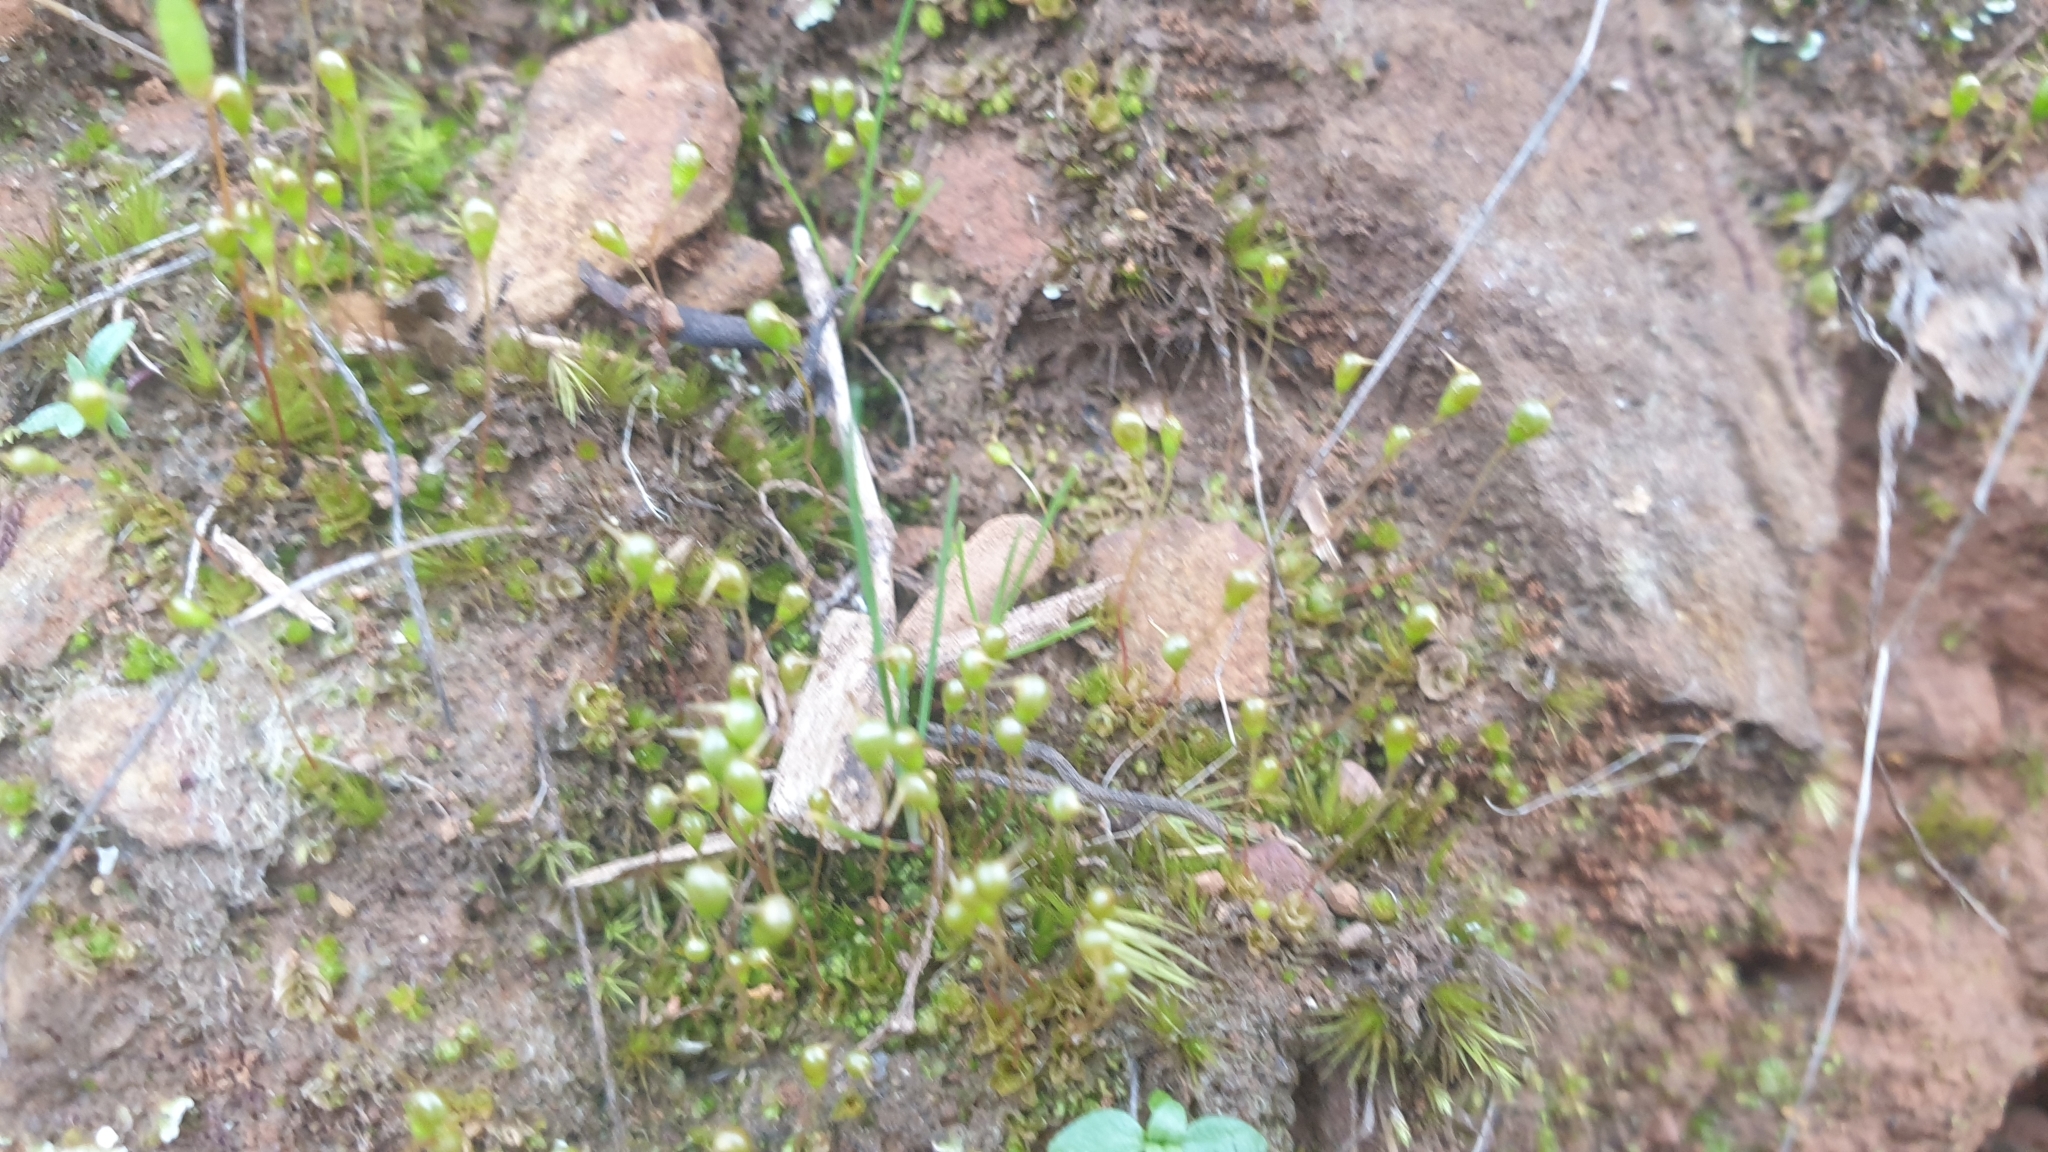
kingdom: Plantae
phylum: Bryophyta
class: Bryopsida
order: Funariales
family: Funariaceae
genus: Entosthodon
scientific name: Entosthodon subnudus
